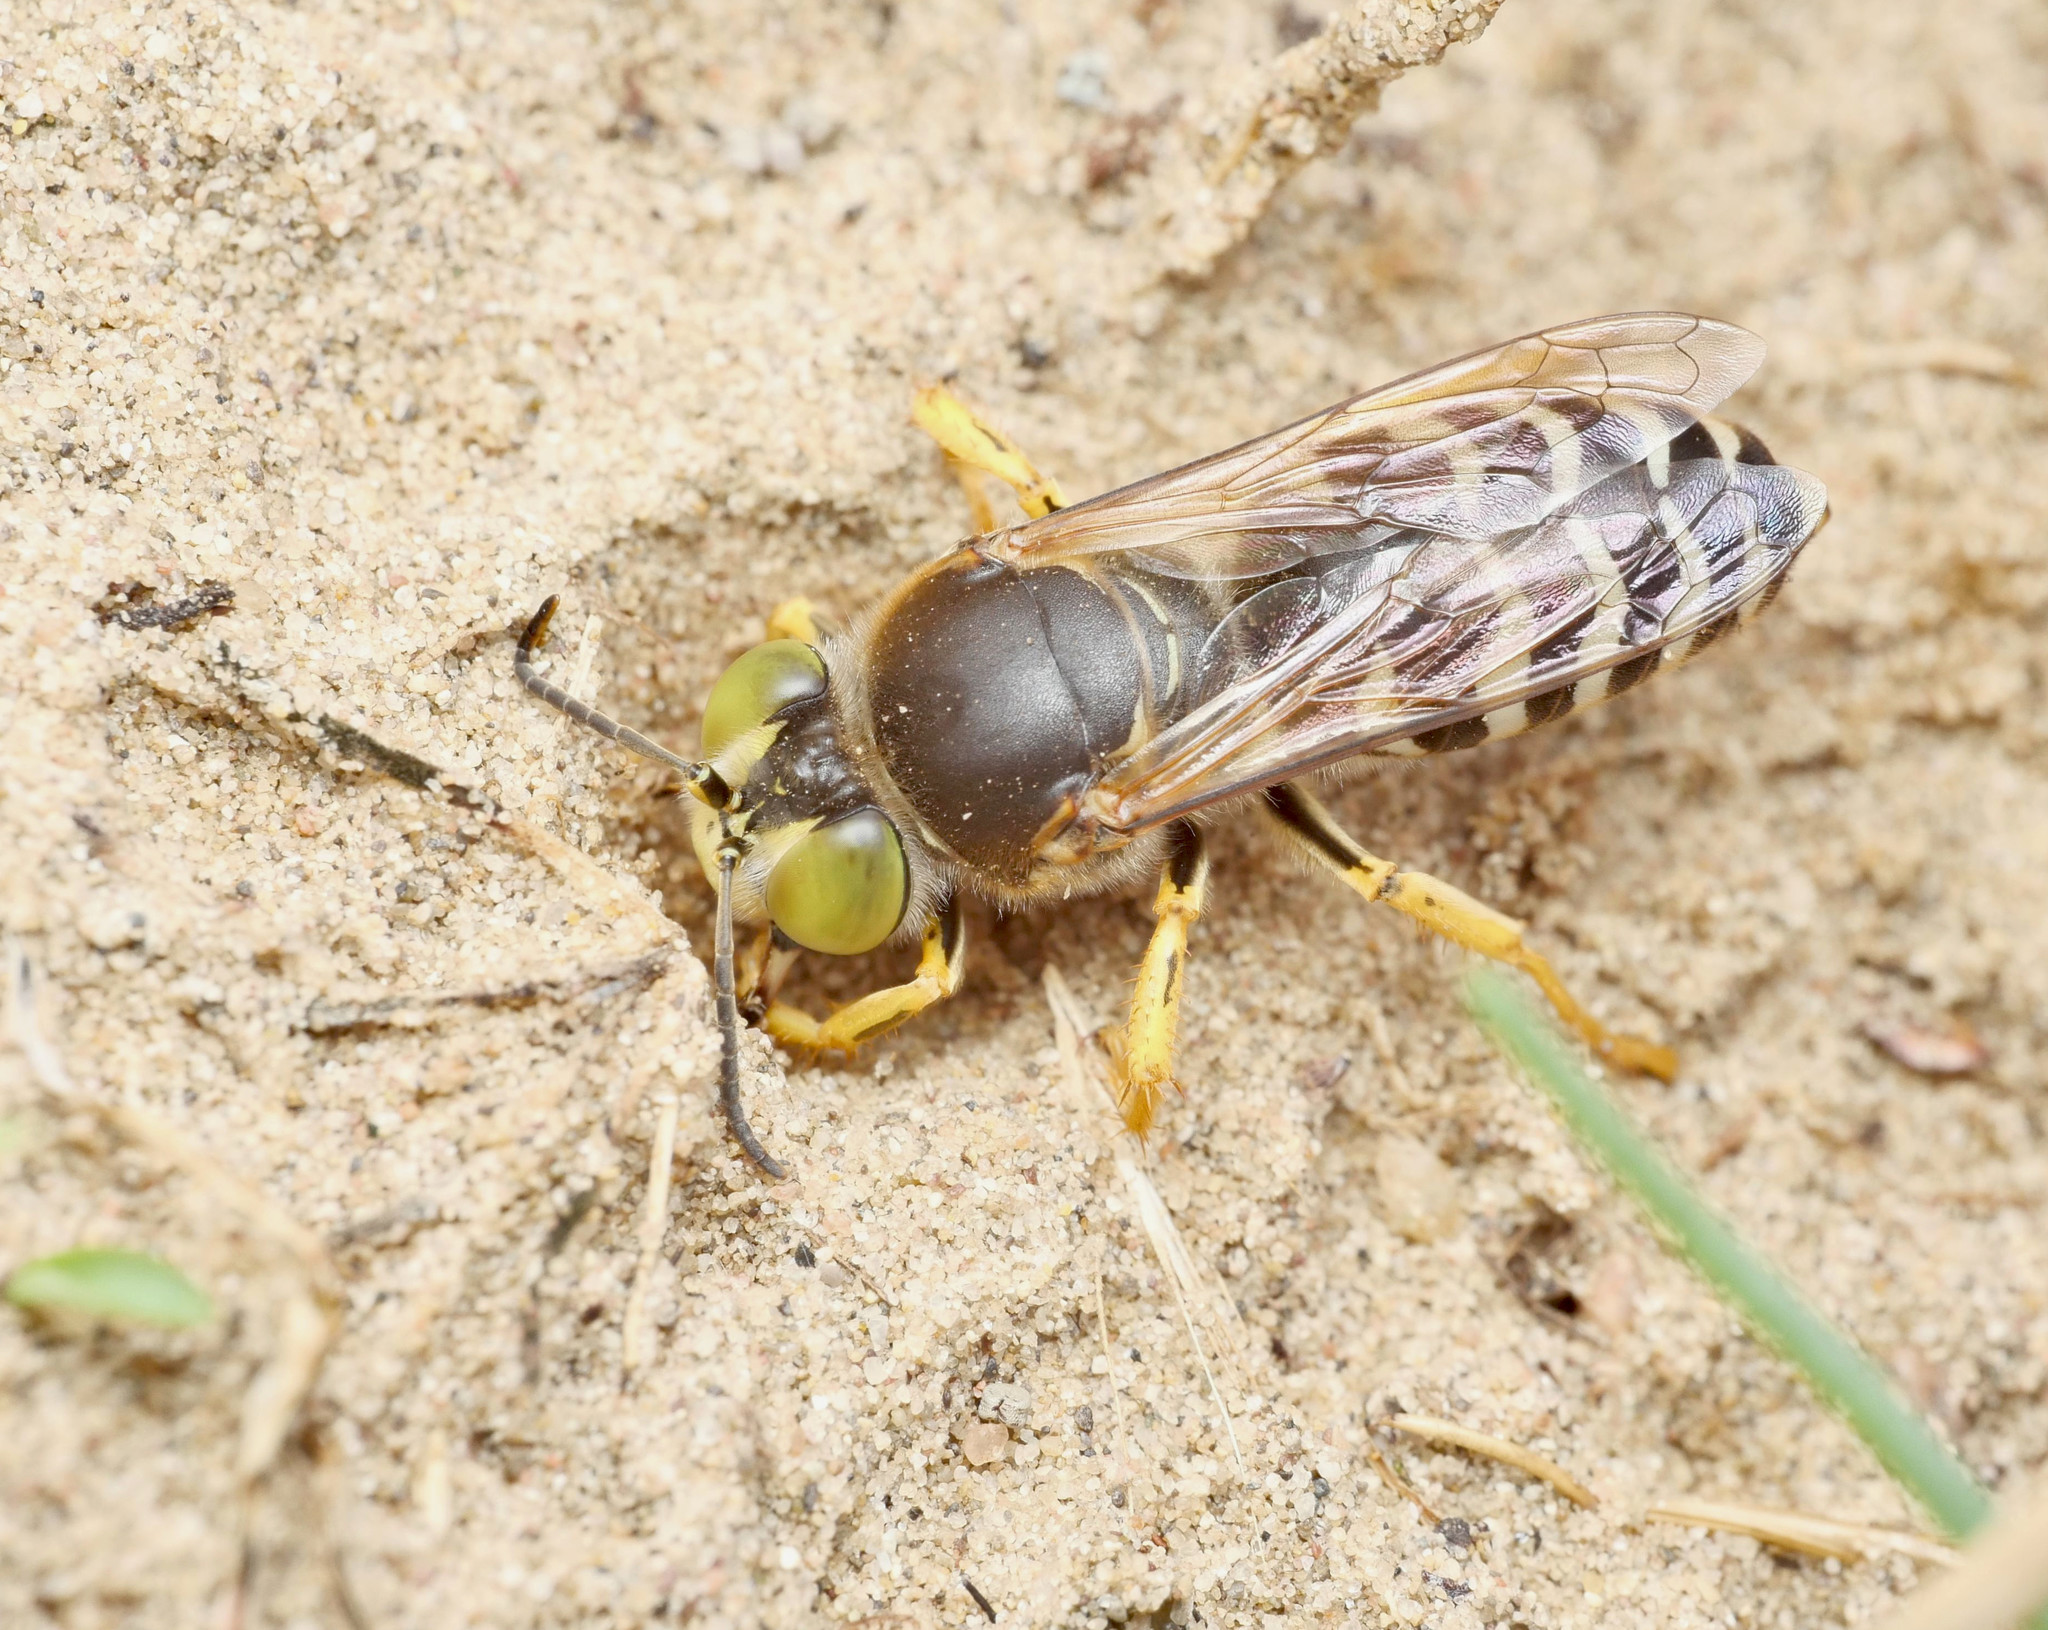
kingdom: Animalia
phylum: Arthropoda
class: Insecta
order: Hymenoptera
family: Crabronidae
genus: Bembix
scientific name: Bembix rostrata
